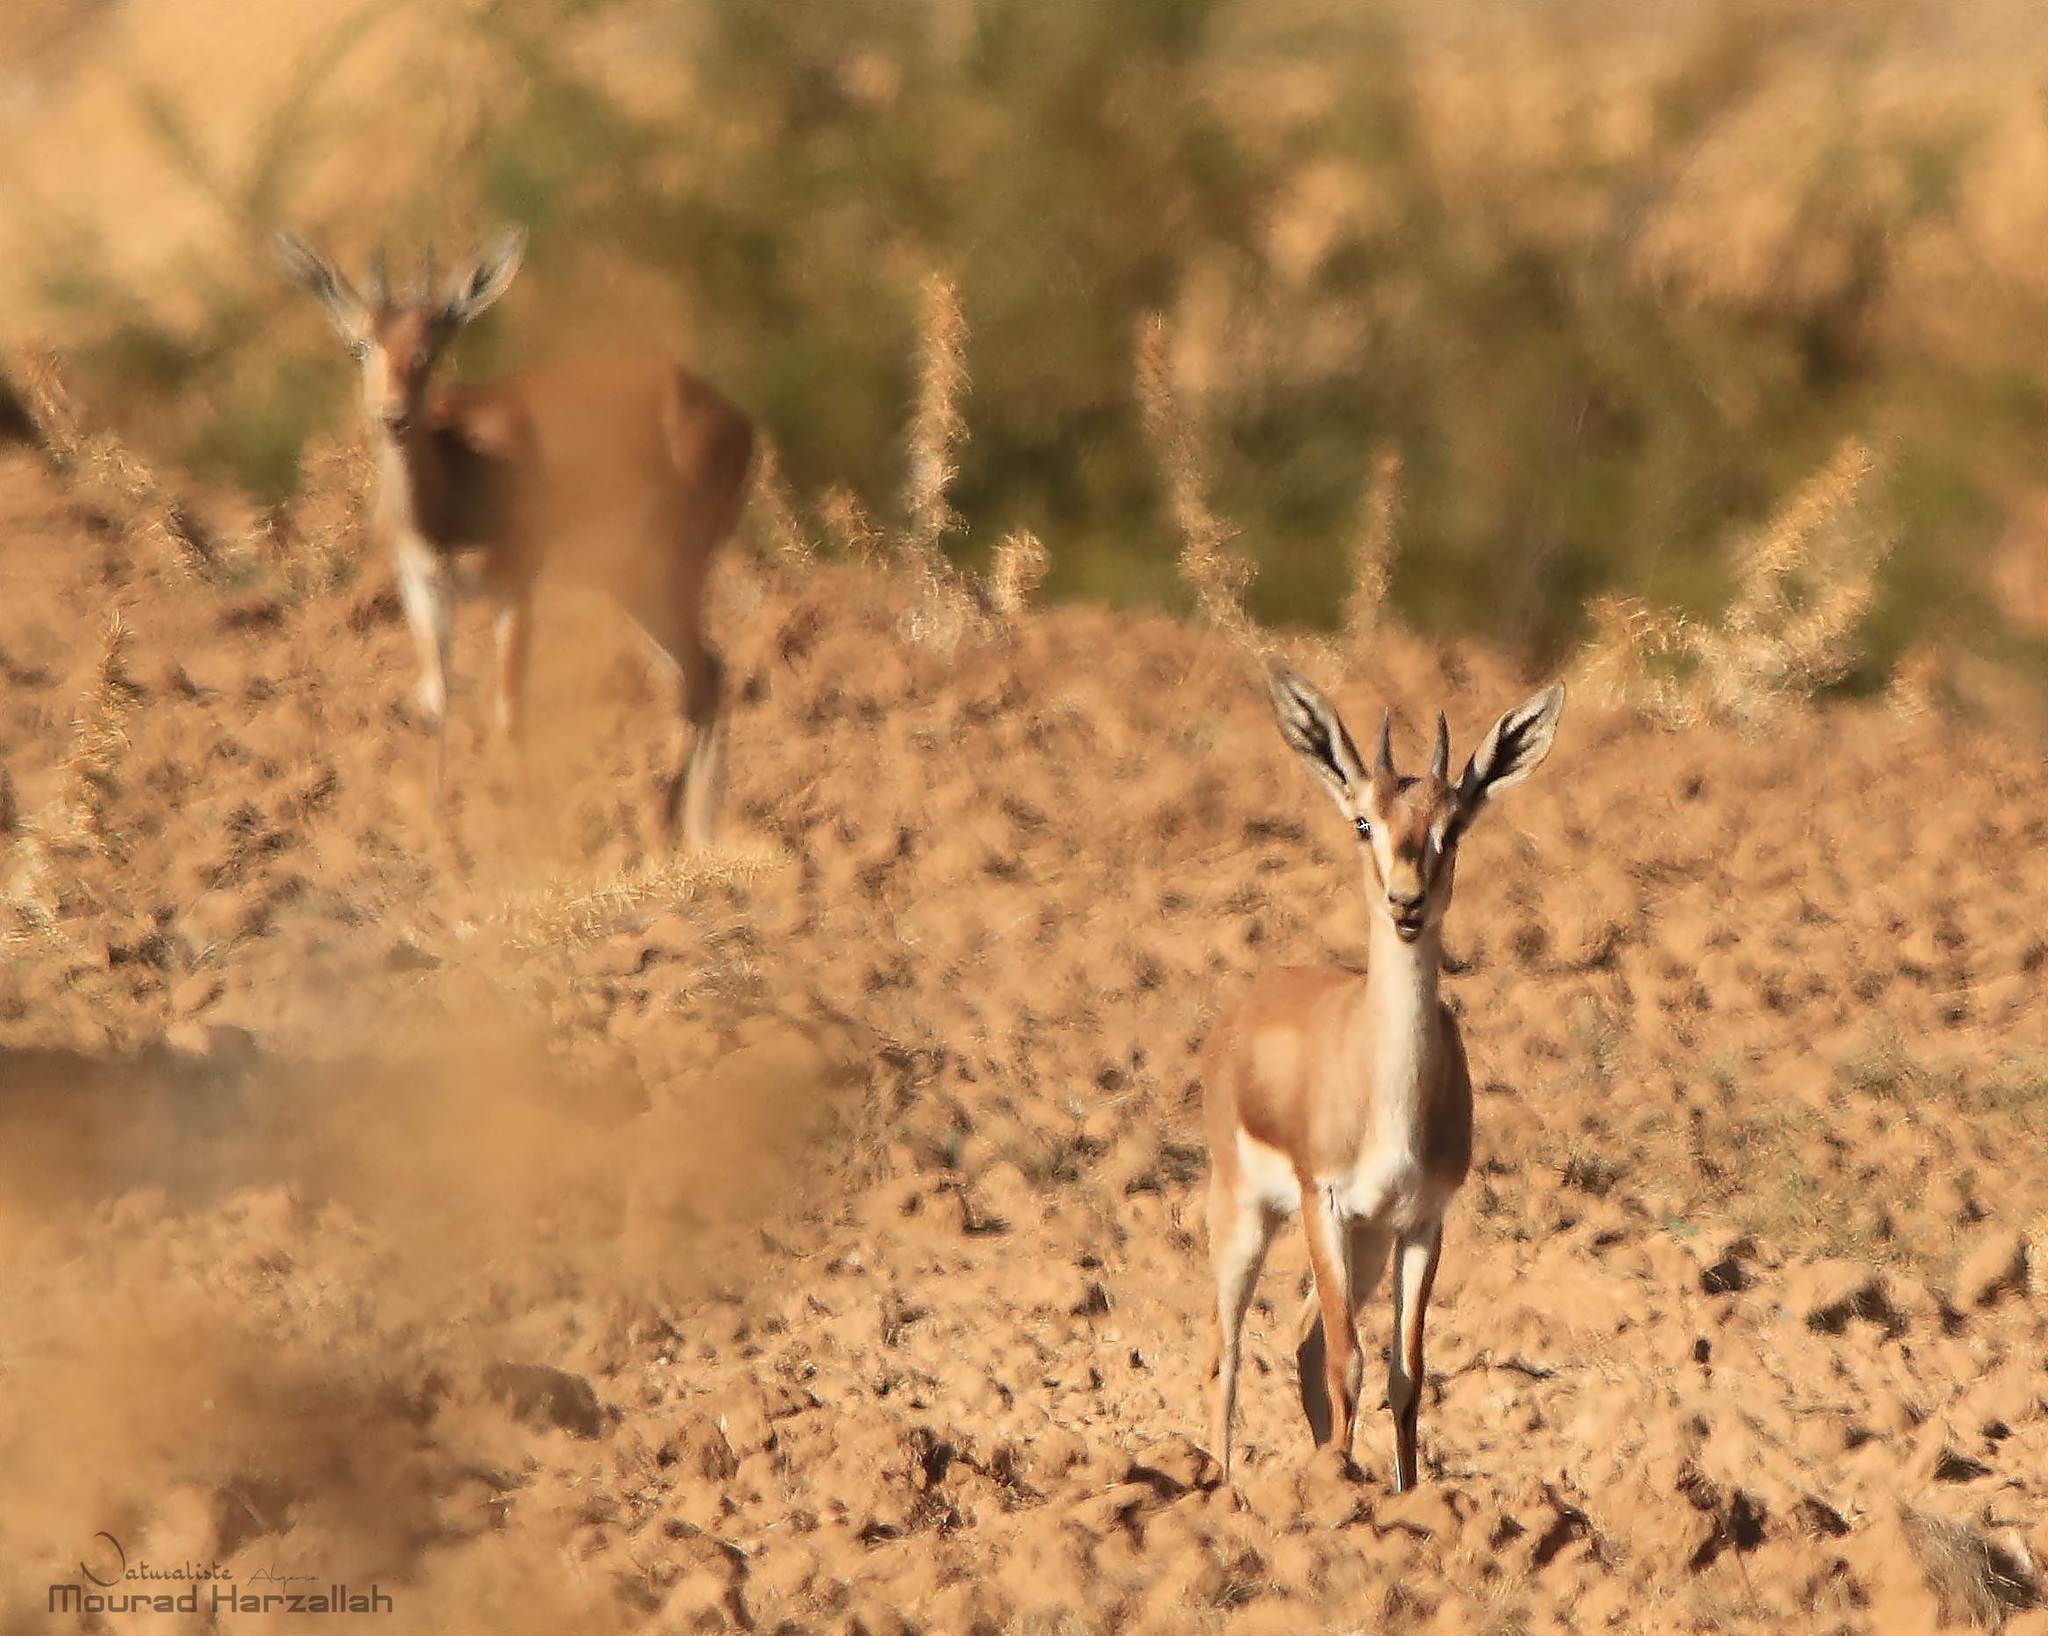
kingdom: Animalia
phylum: Chordata
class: Mammalia
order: Artiodactyla
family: Bovidae
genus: Gazella
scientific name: Gazella cuvieri
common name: Cuvier's gazelle
